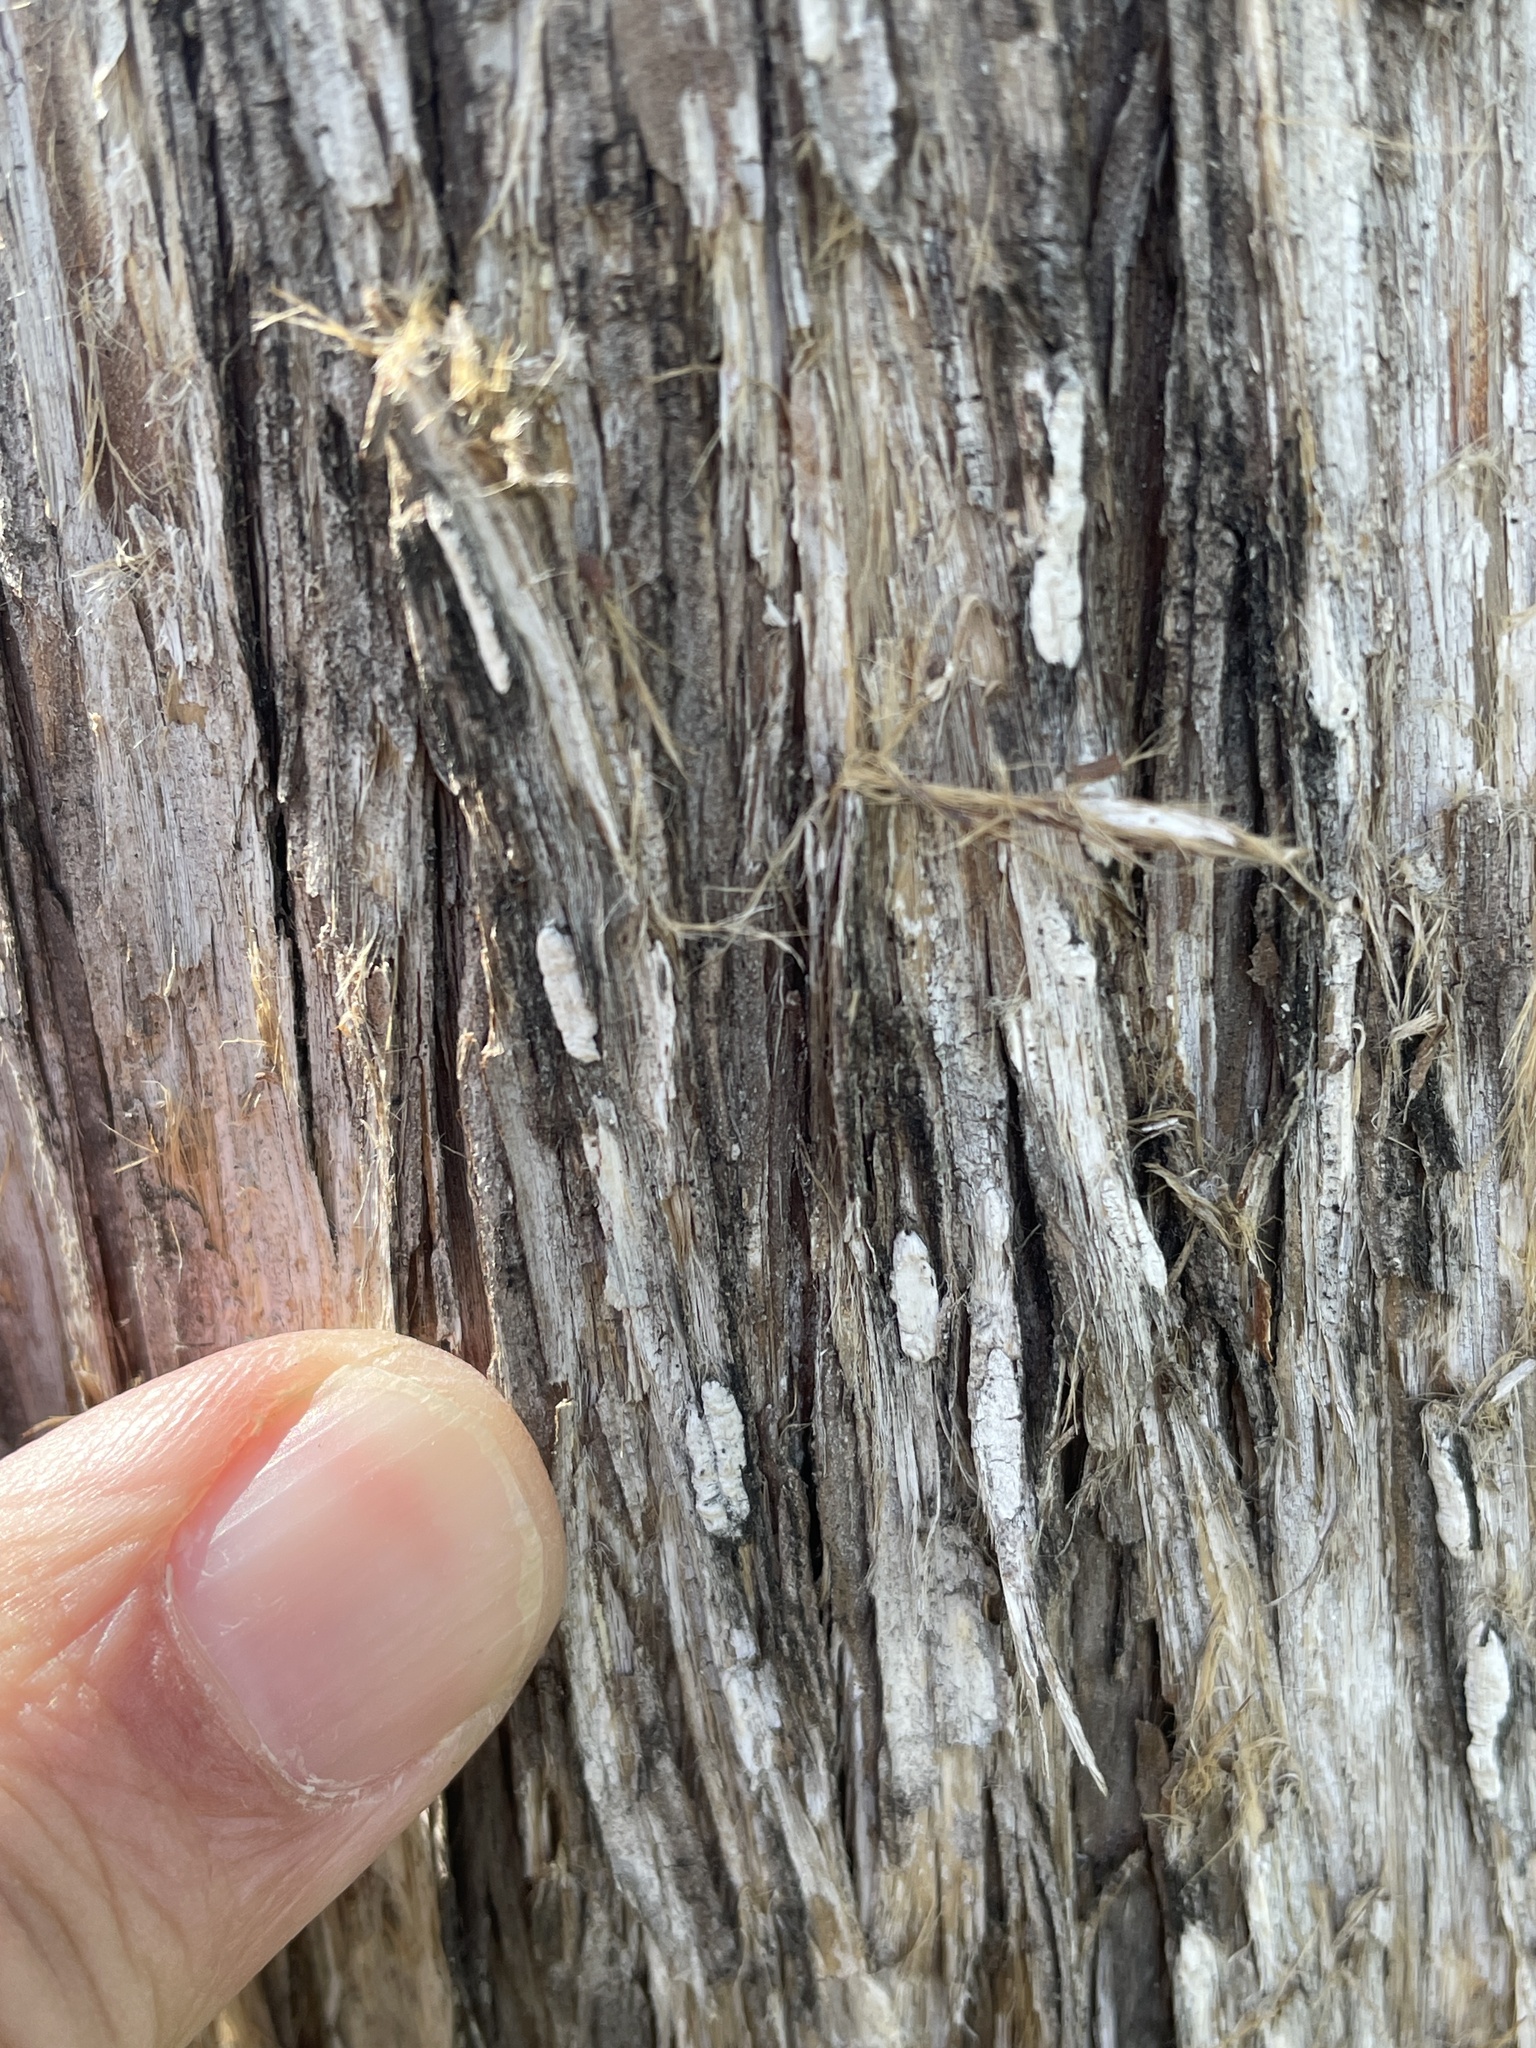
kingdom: Fungi
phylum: Basidiomycota
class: Agaricomycetes
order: Agaricales
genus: Dendrothele
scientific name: Dendrothele nivosa
